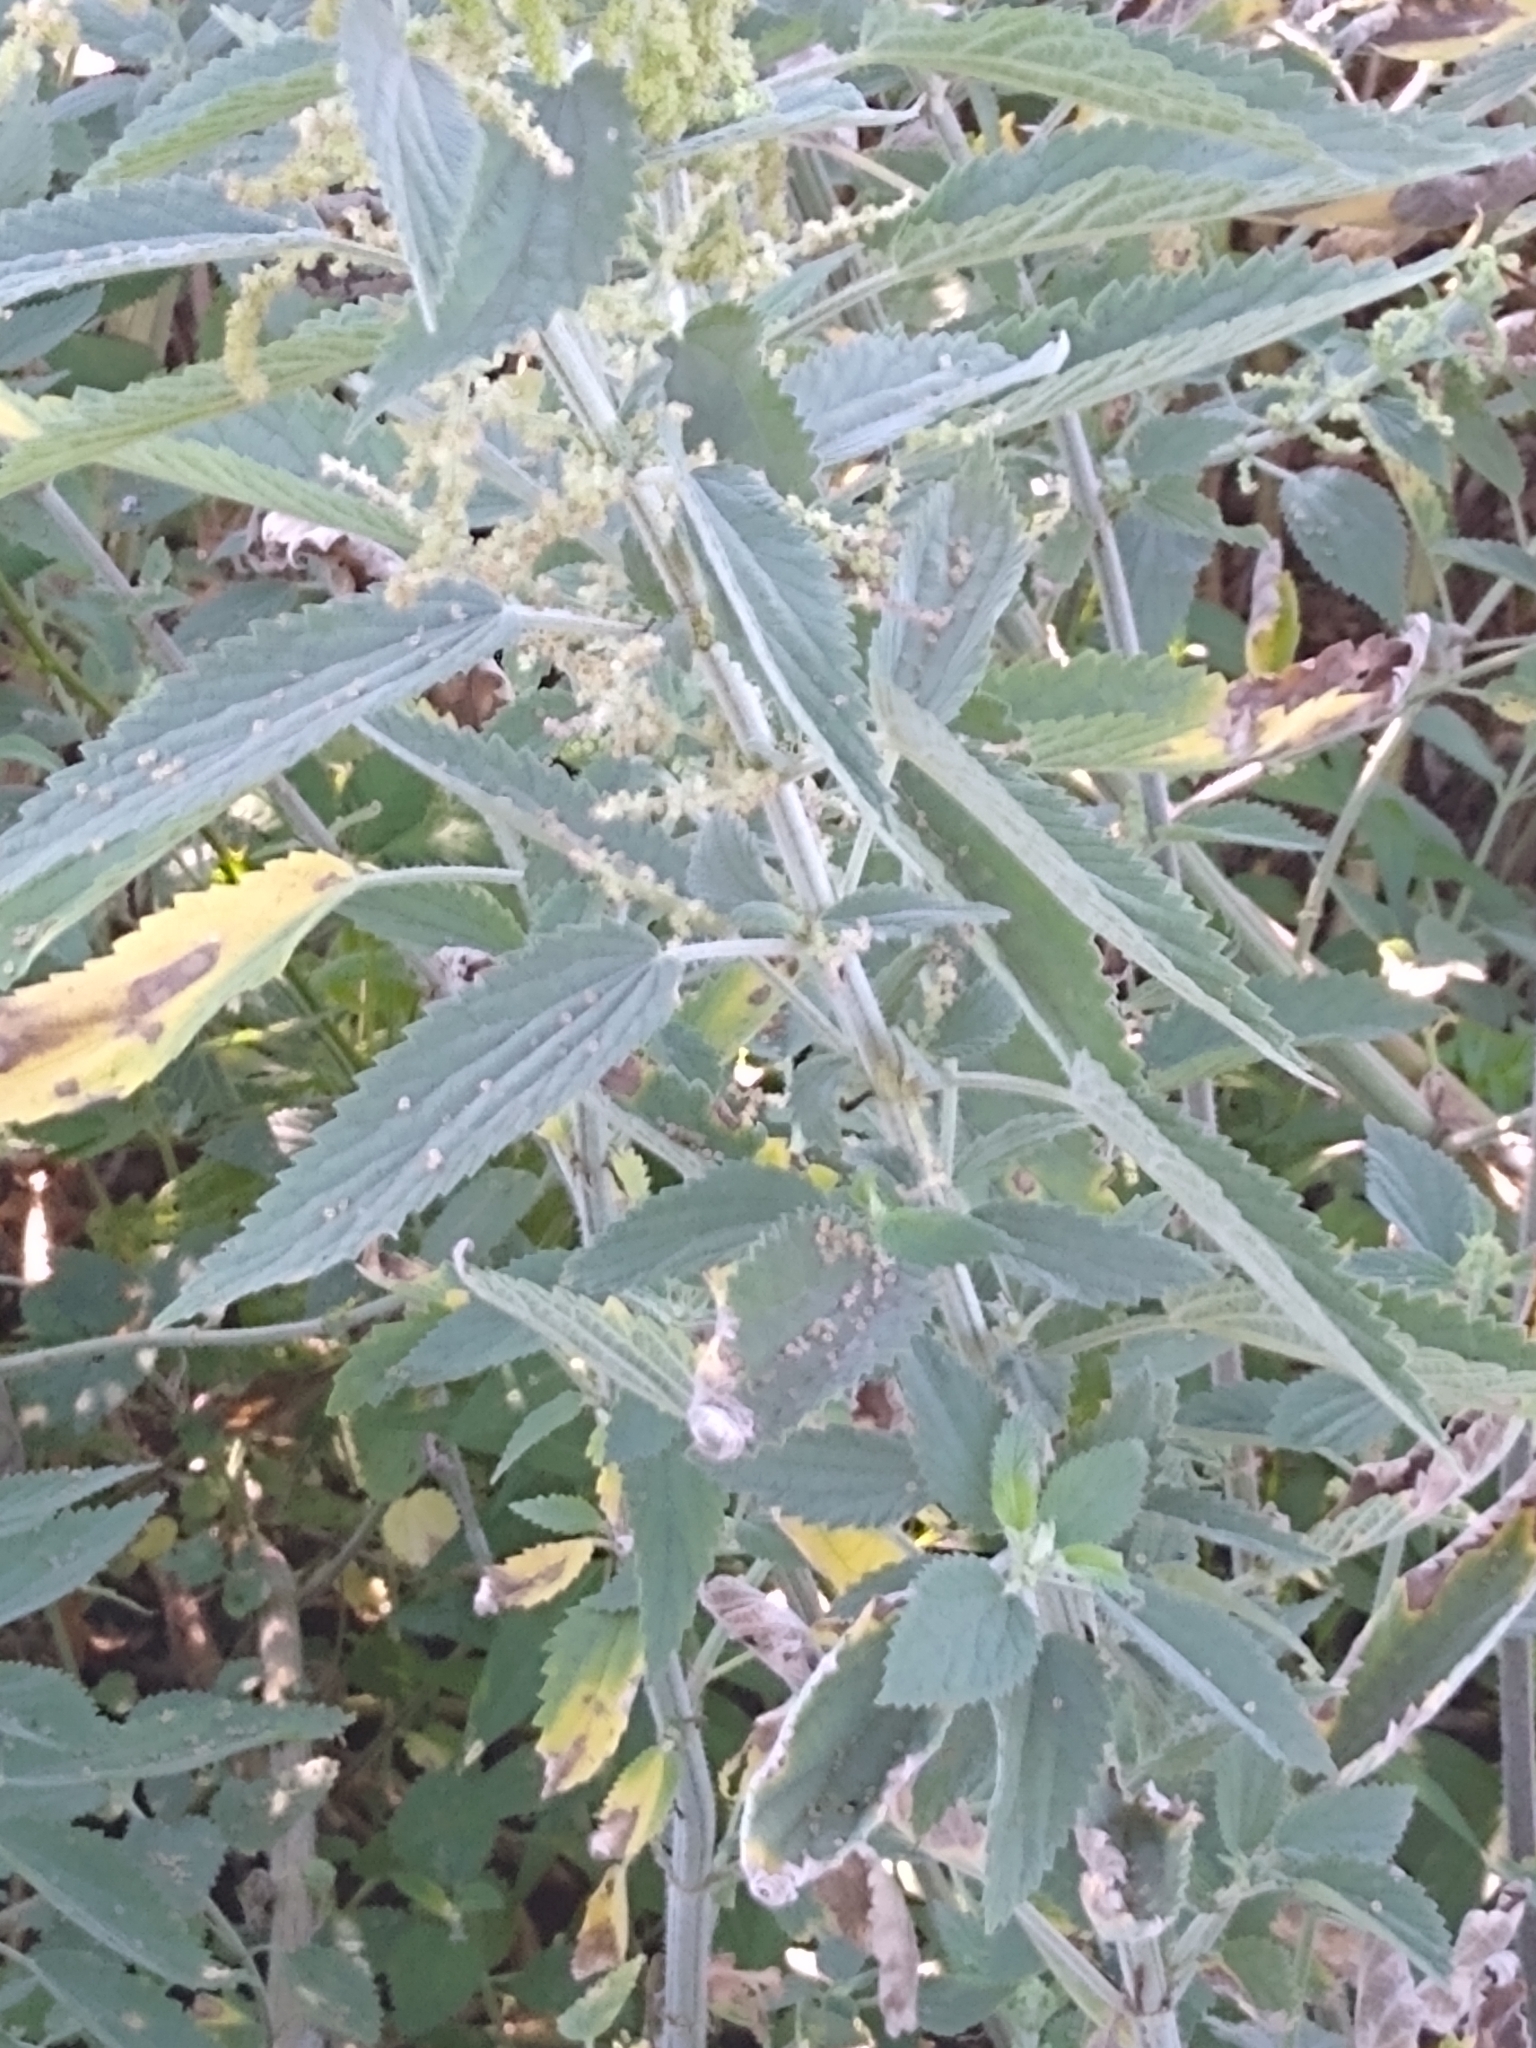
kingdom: Plantae
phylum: Tracheophyta
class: Magnoliopsida
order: Rosales
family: Urticaceae
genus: Urtica
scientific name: Urtica dioica
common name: Common nettle
